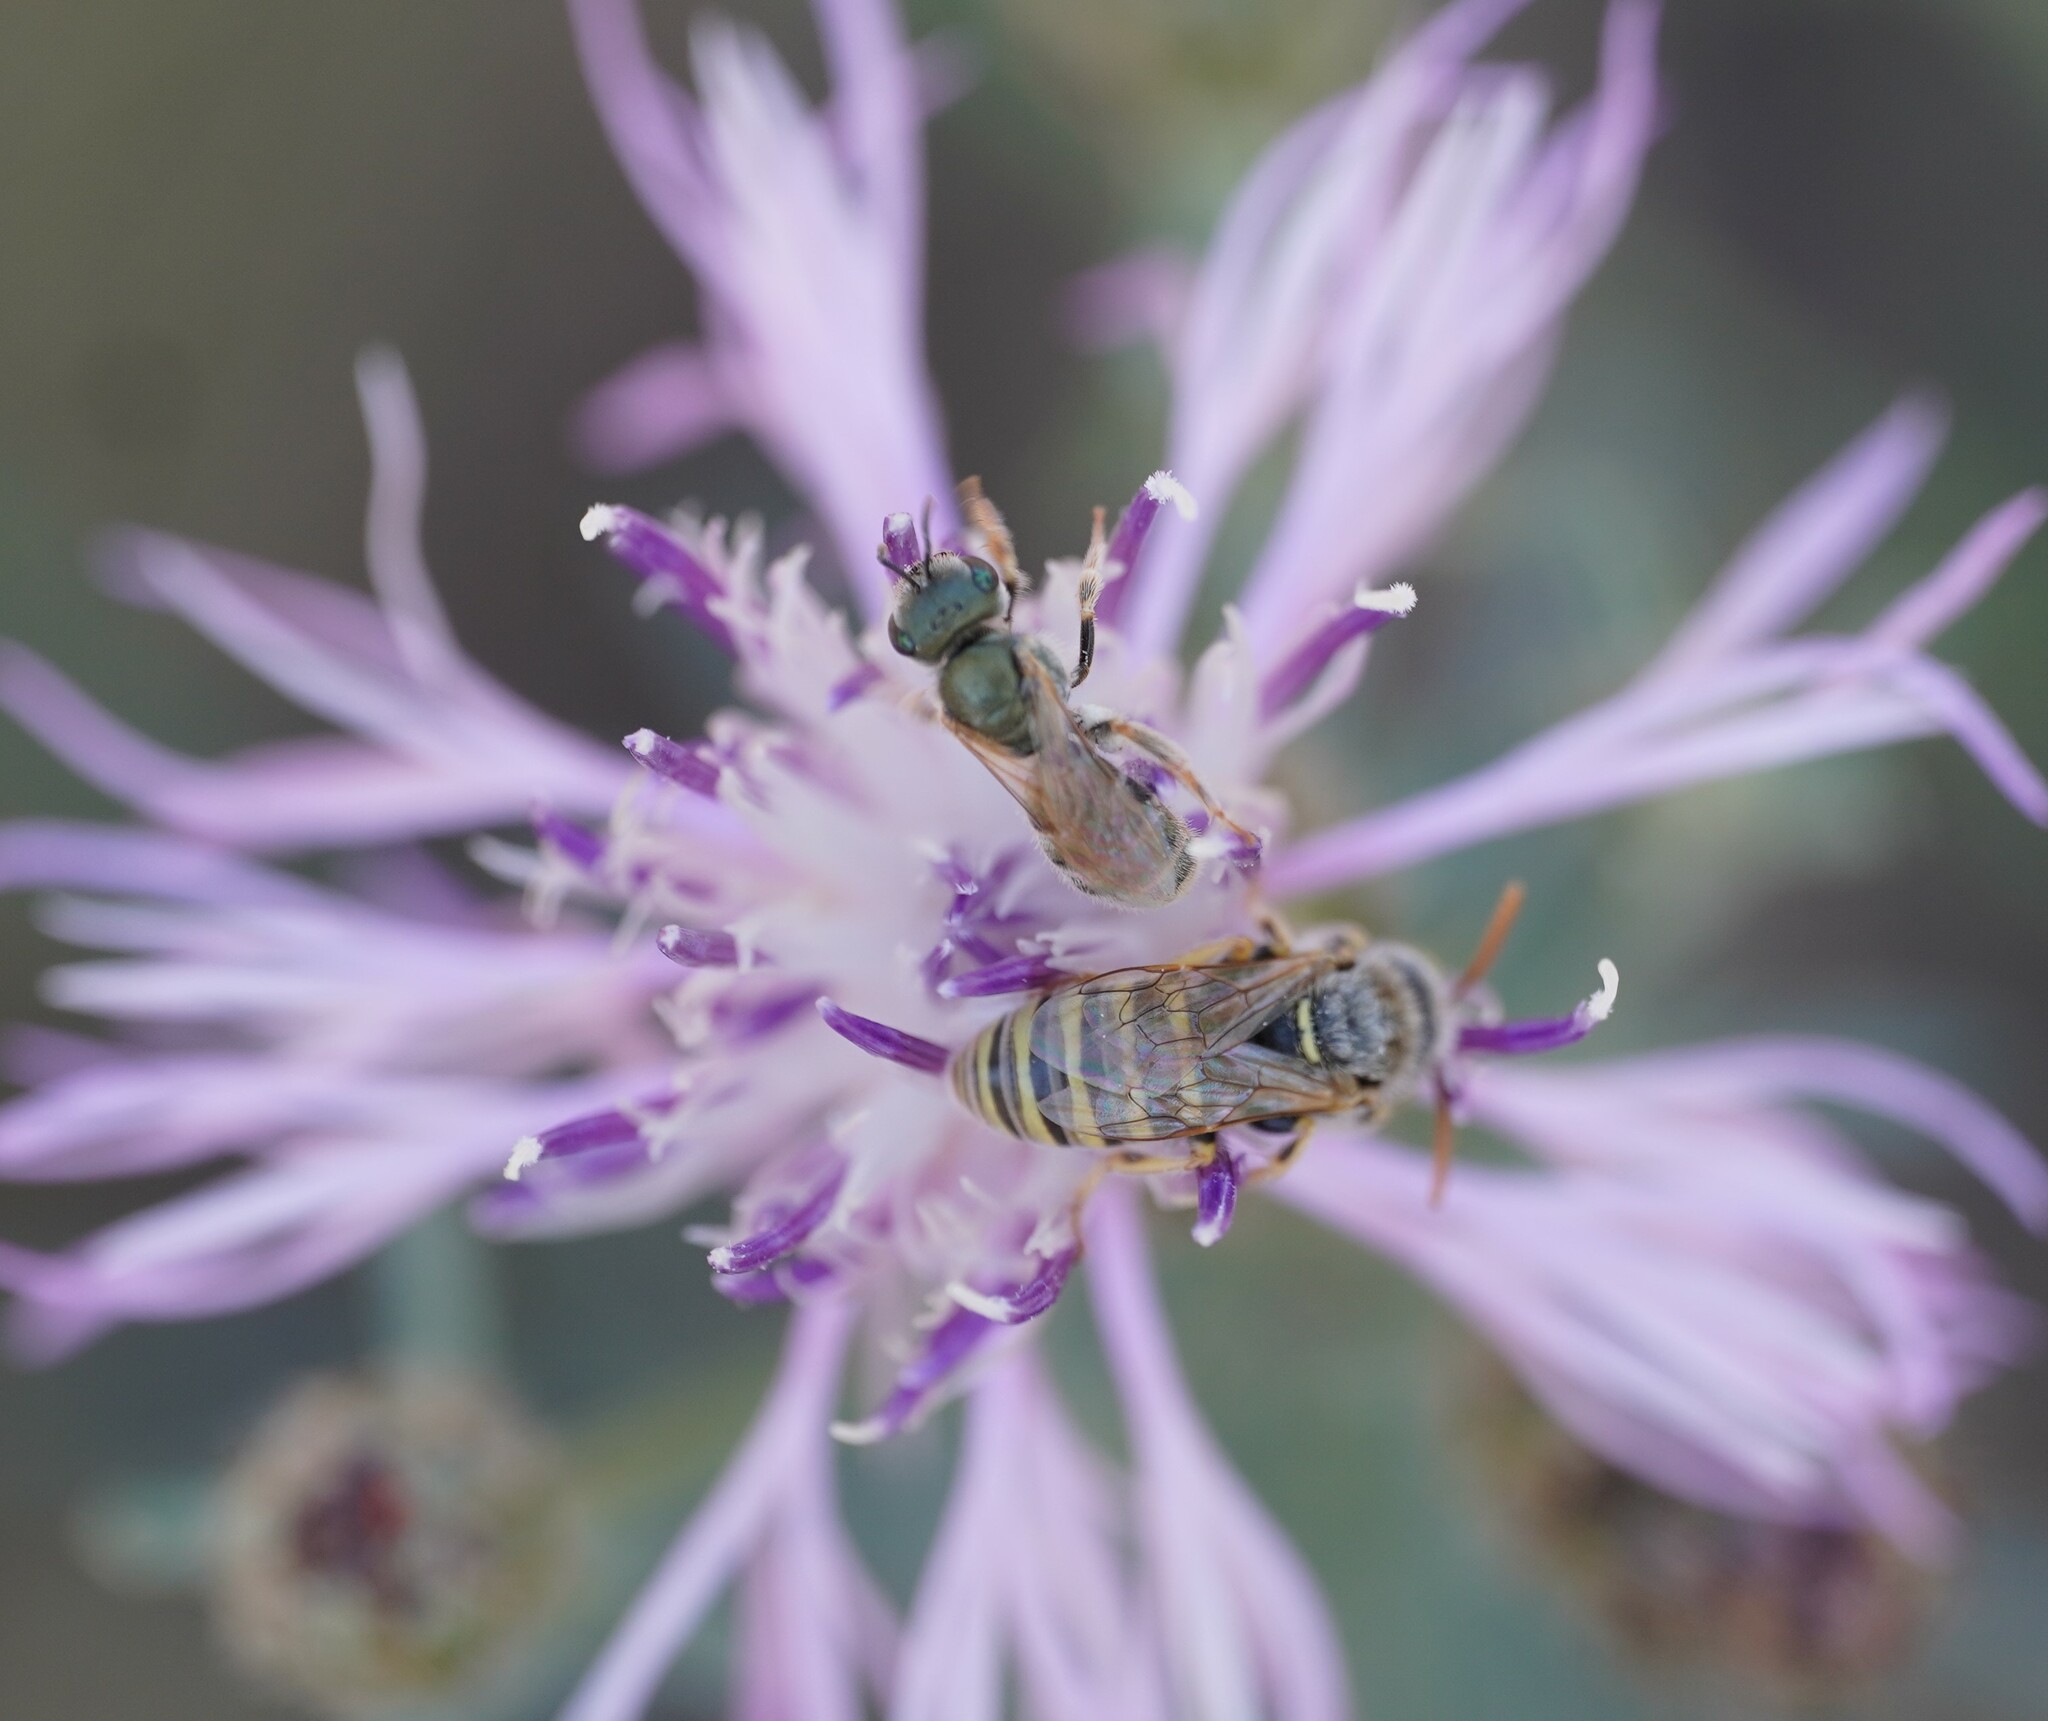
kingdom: Animalia
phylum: Arthropoda
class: Insecta
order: Hymenoptera
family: Andrenidae
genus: Camptopoeum
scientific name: Camptopoeum friesei
